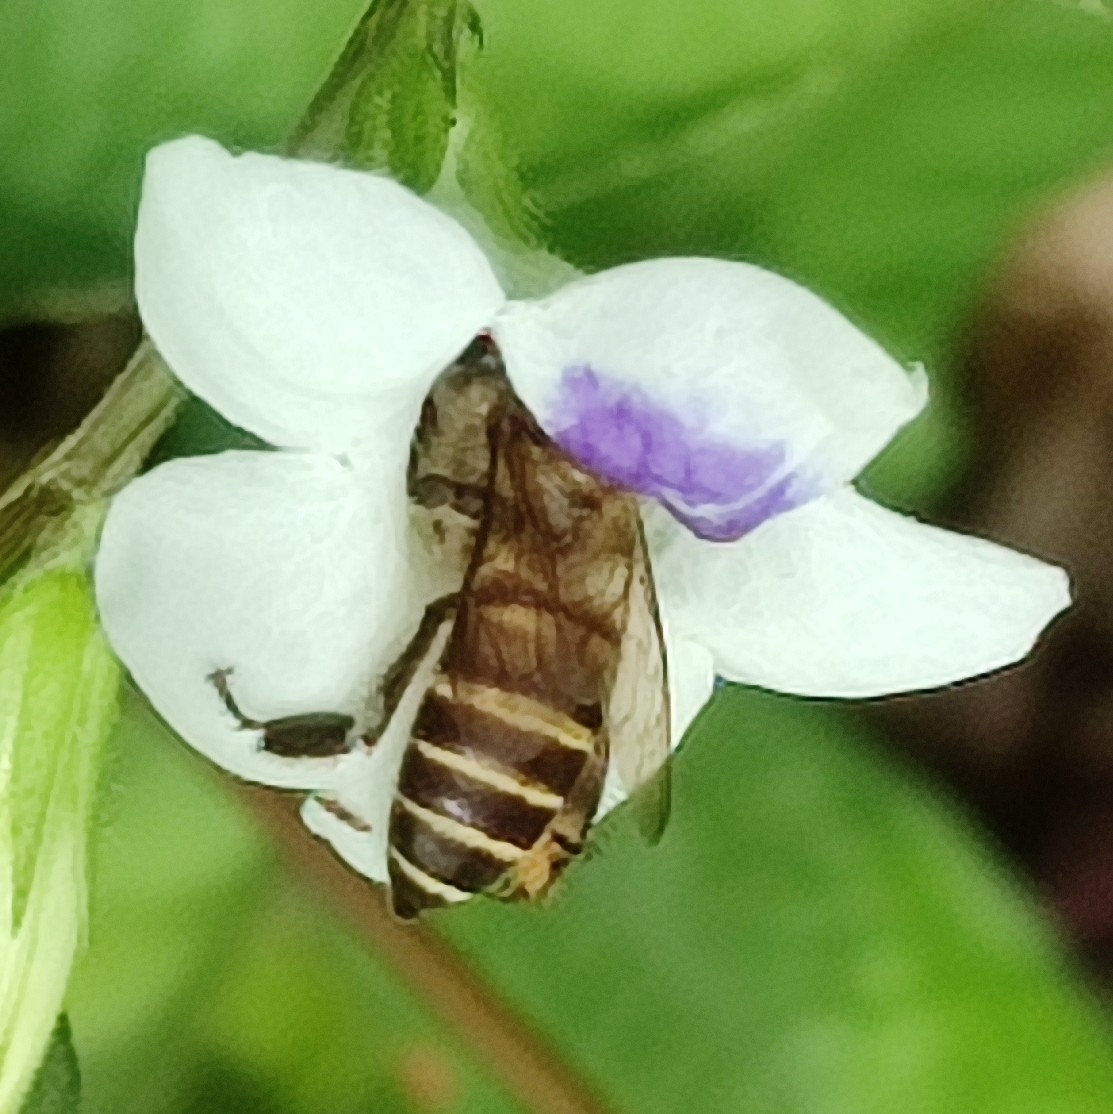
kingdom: Animalia
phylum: Arthropoda
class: Insecta
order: Hymenoptera
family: Apidae
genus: Apis
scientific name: Apis cerana
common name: Honey bee
